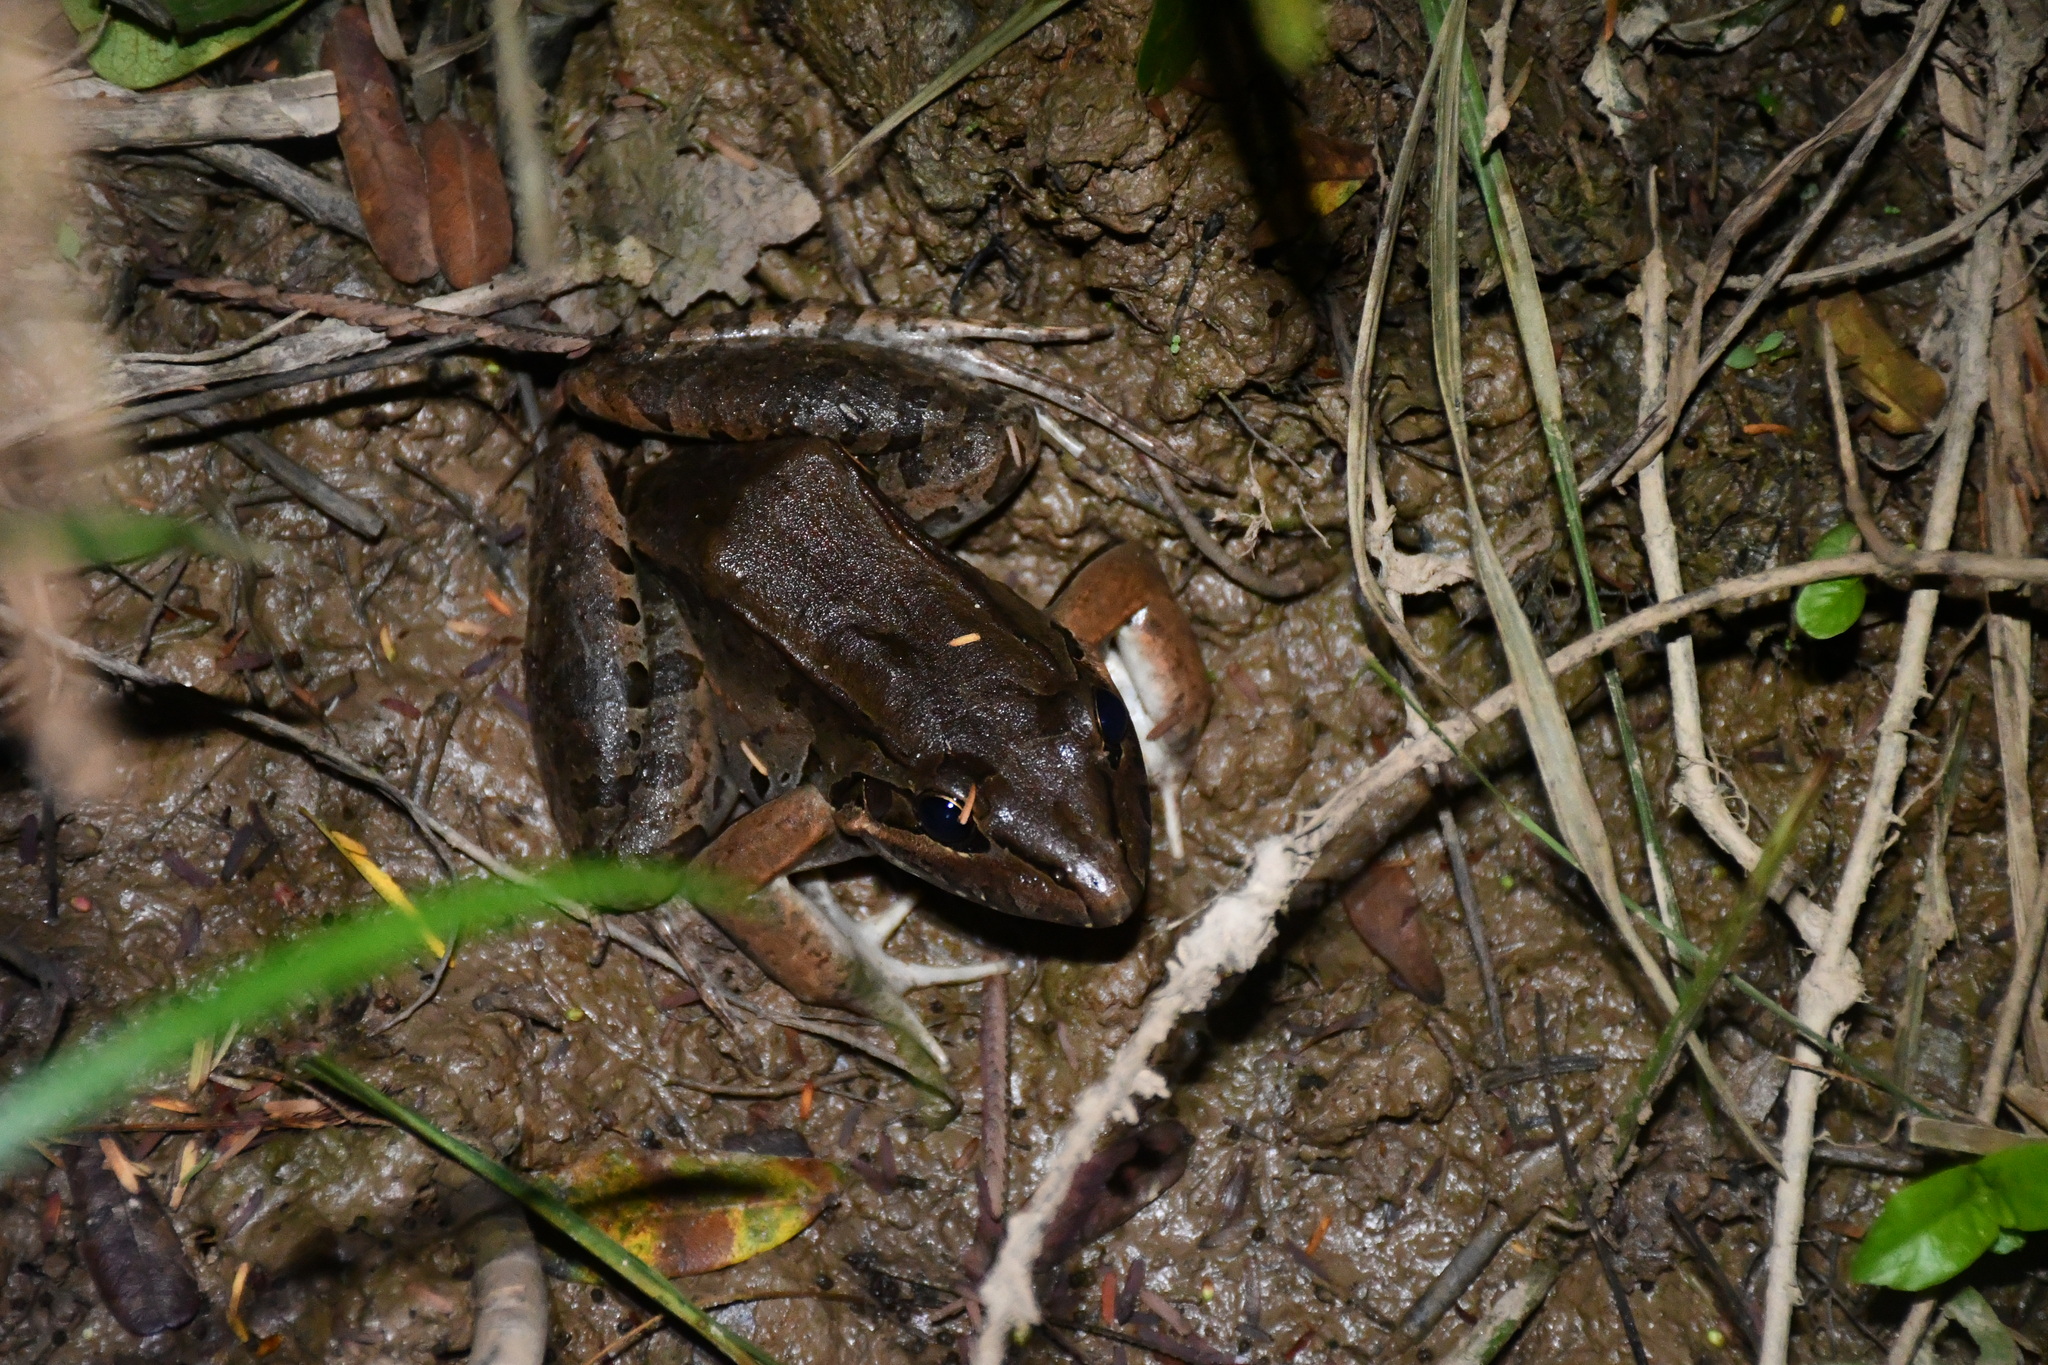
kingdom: Animalia
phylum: Chordata
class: Amphibia
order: Anura
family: Leptodactylidae
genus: Leptodactylus
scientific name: Leptodactylus bolivianus
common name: Bolivian white-lipped frog
